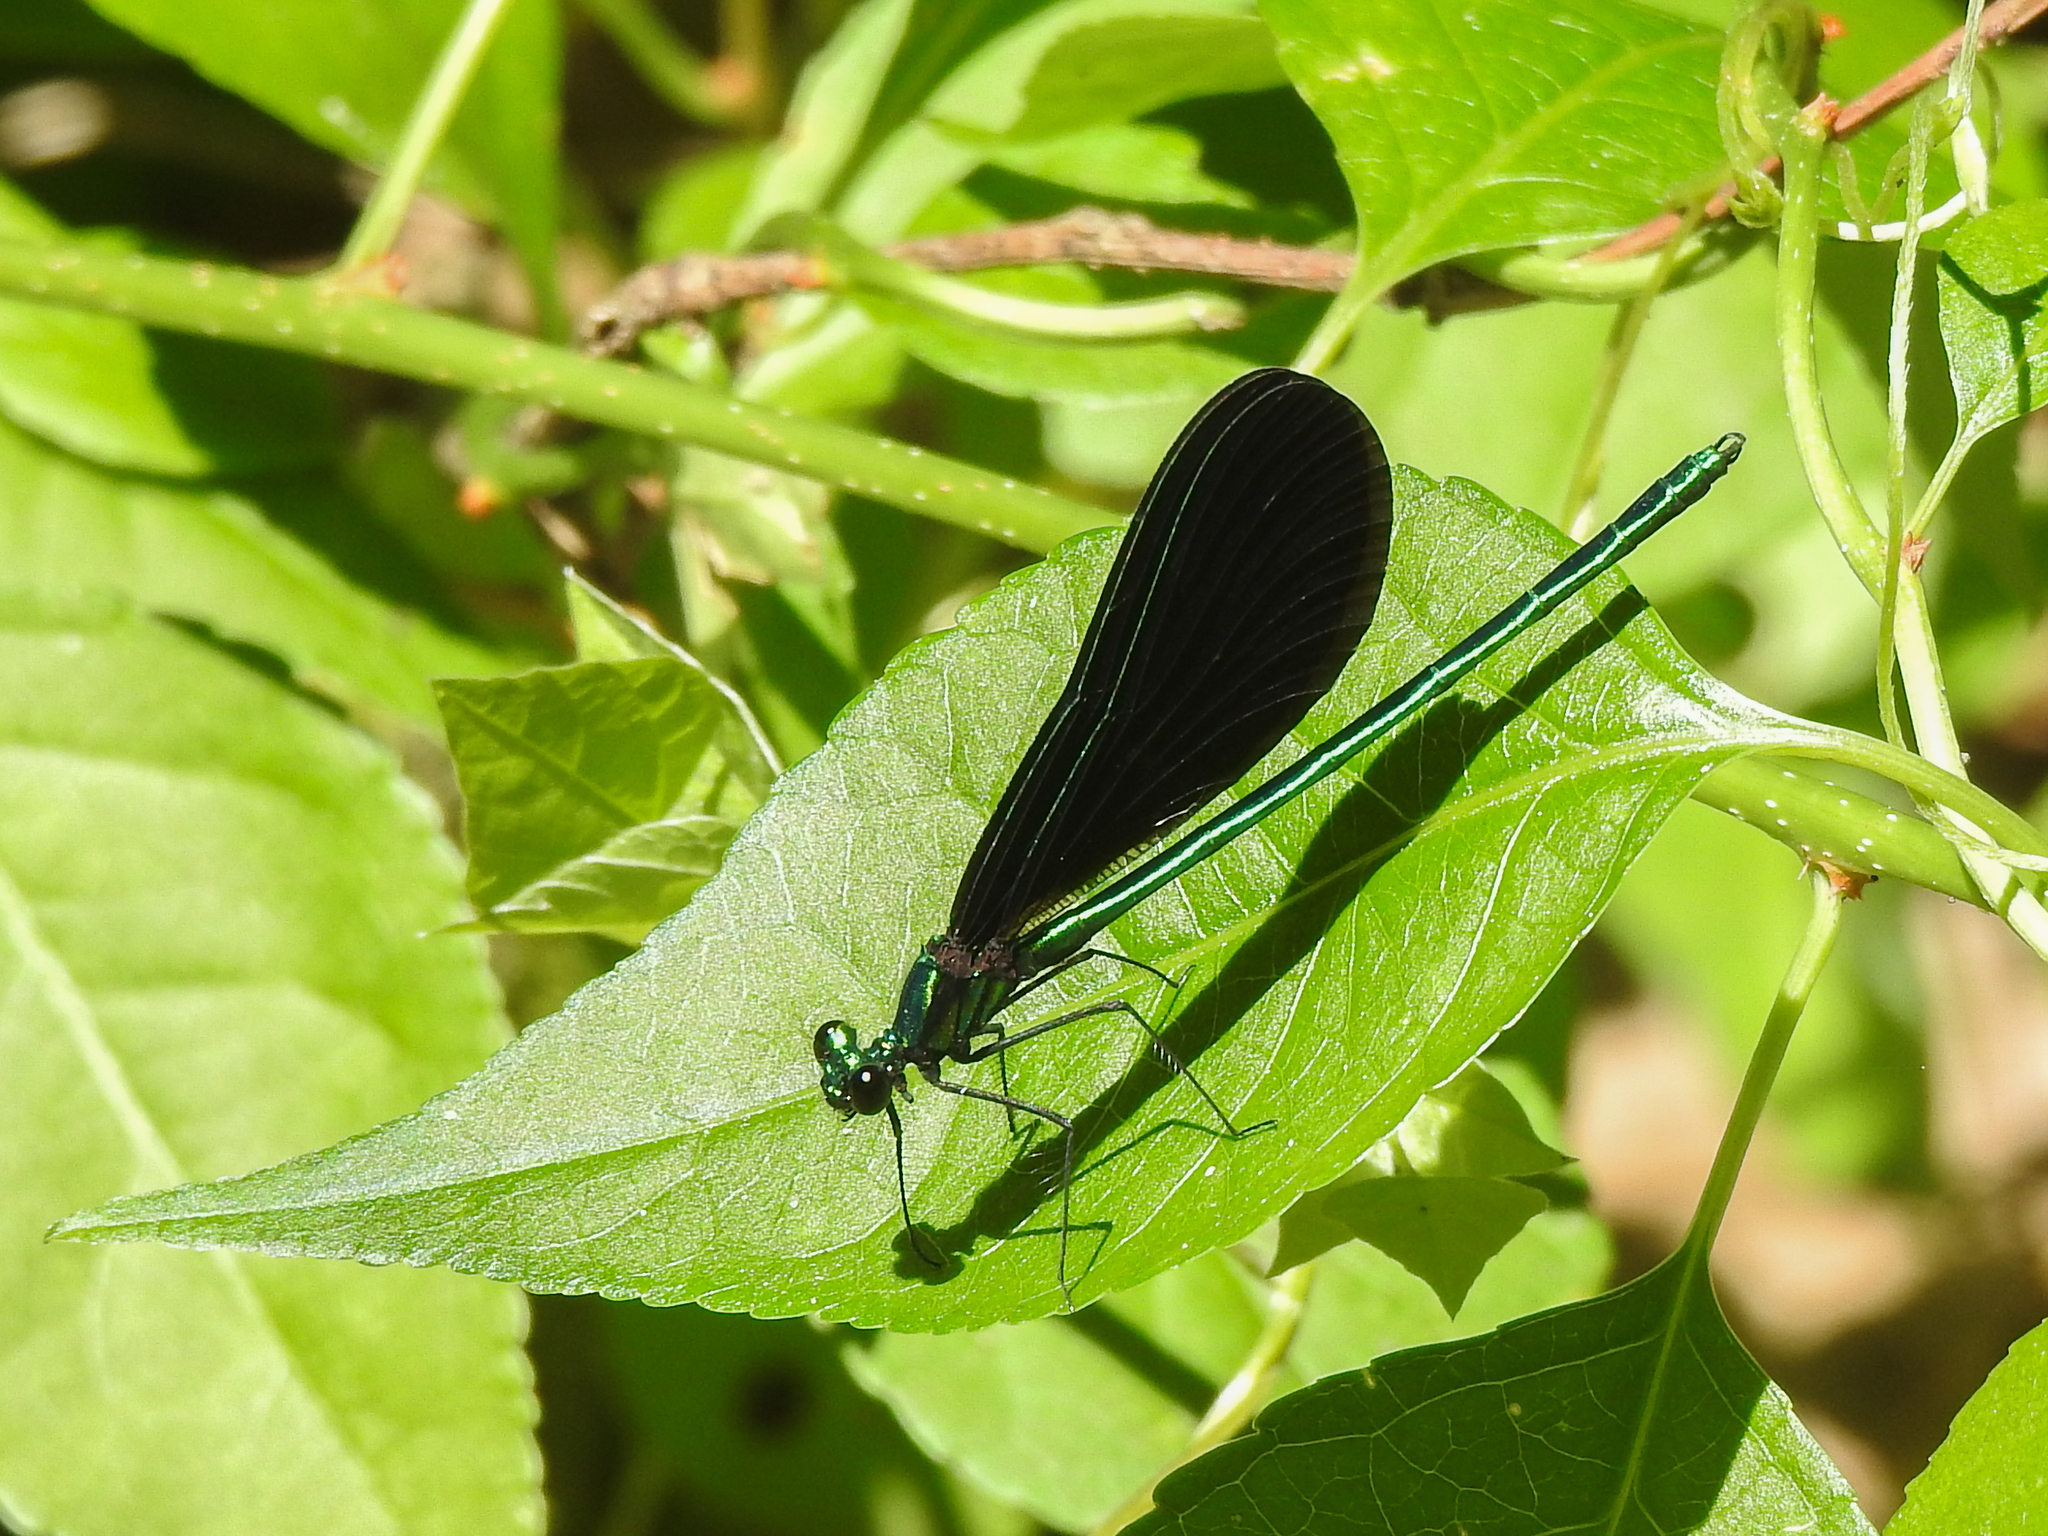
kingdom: Animalia
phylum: Arthropoda
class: Insecta
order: Odonata
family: Calopterygidae
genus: Calopteryx
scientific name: Calopteryx maculata
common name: Ebony jewelwing
